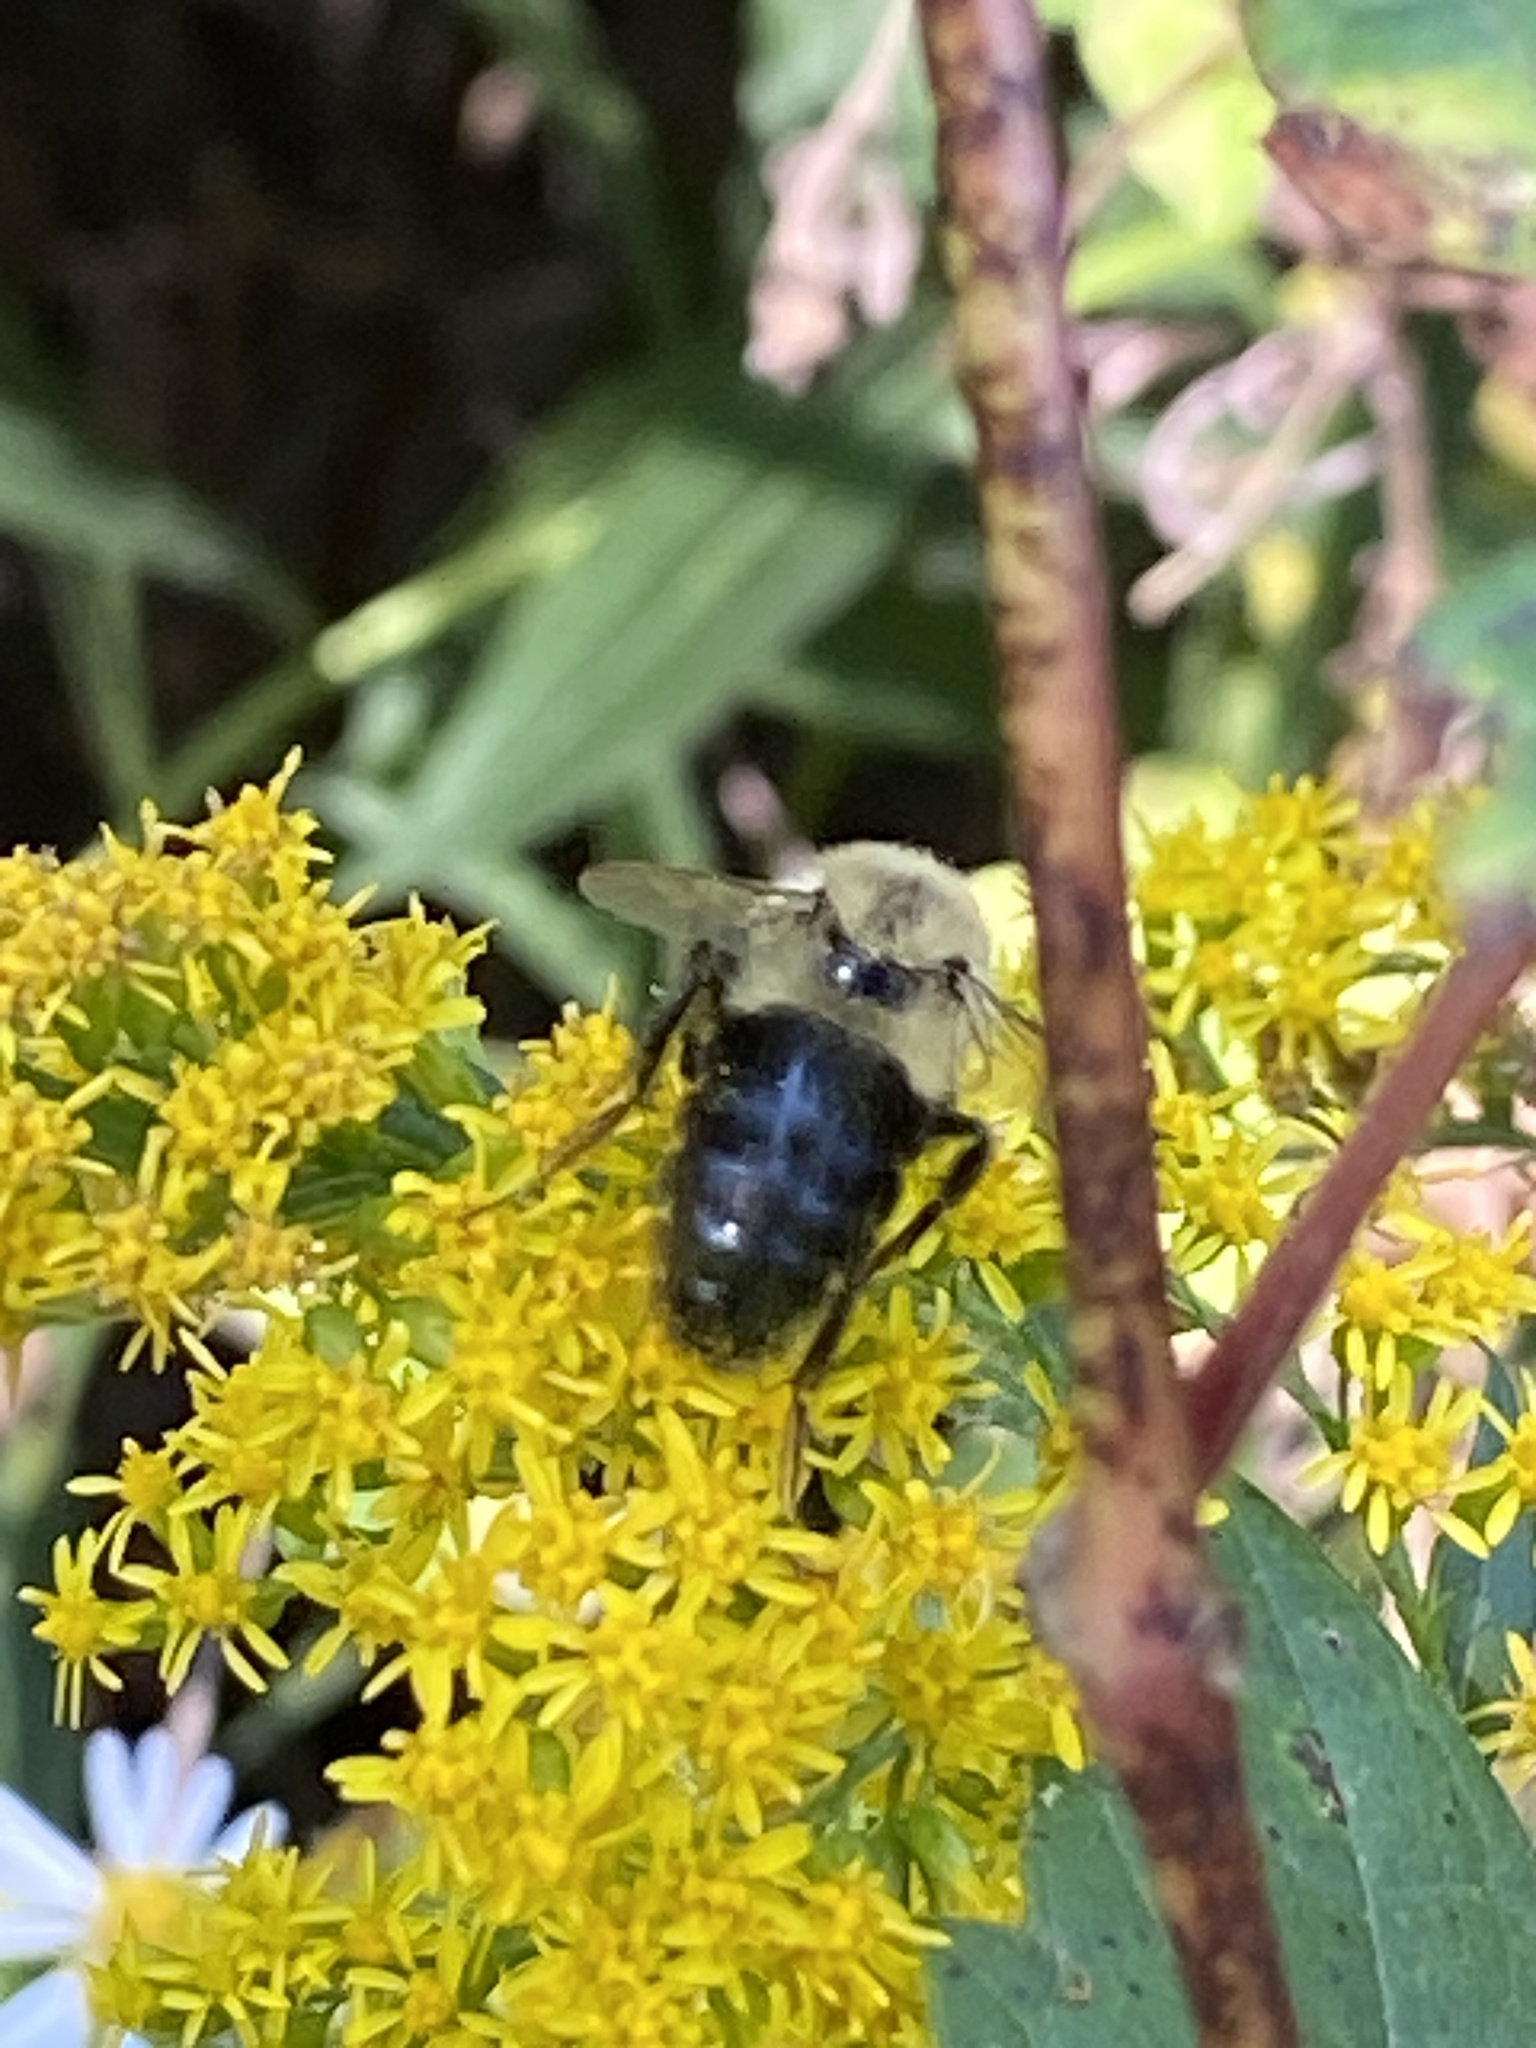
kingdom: Animalia
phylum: Arthropoda
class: Insecta
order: Hymenoptera
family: Apidae
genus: Bombus
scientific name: Bombus impatiens
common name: Common eastern bumble bee
